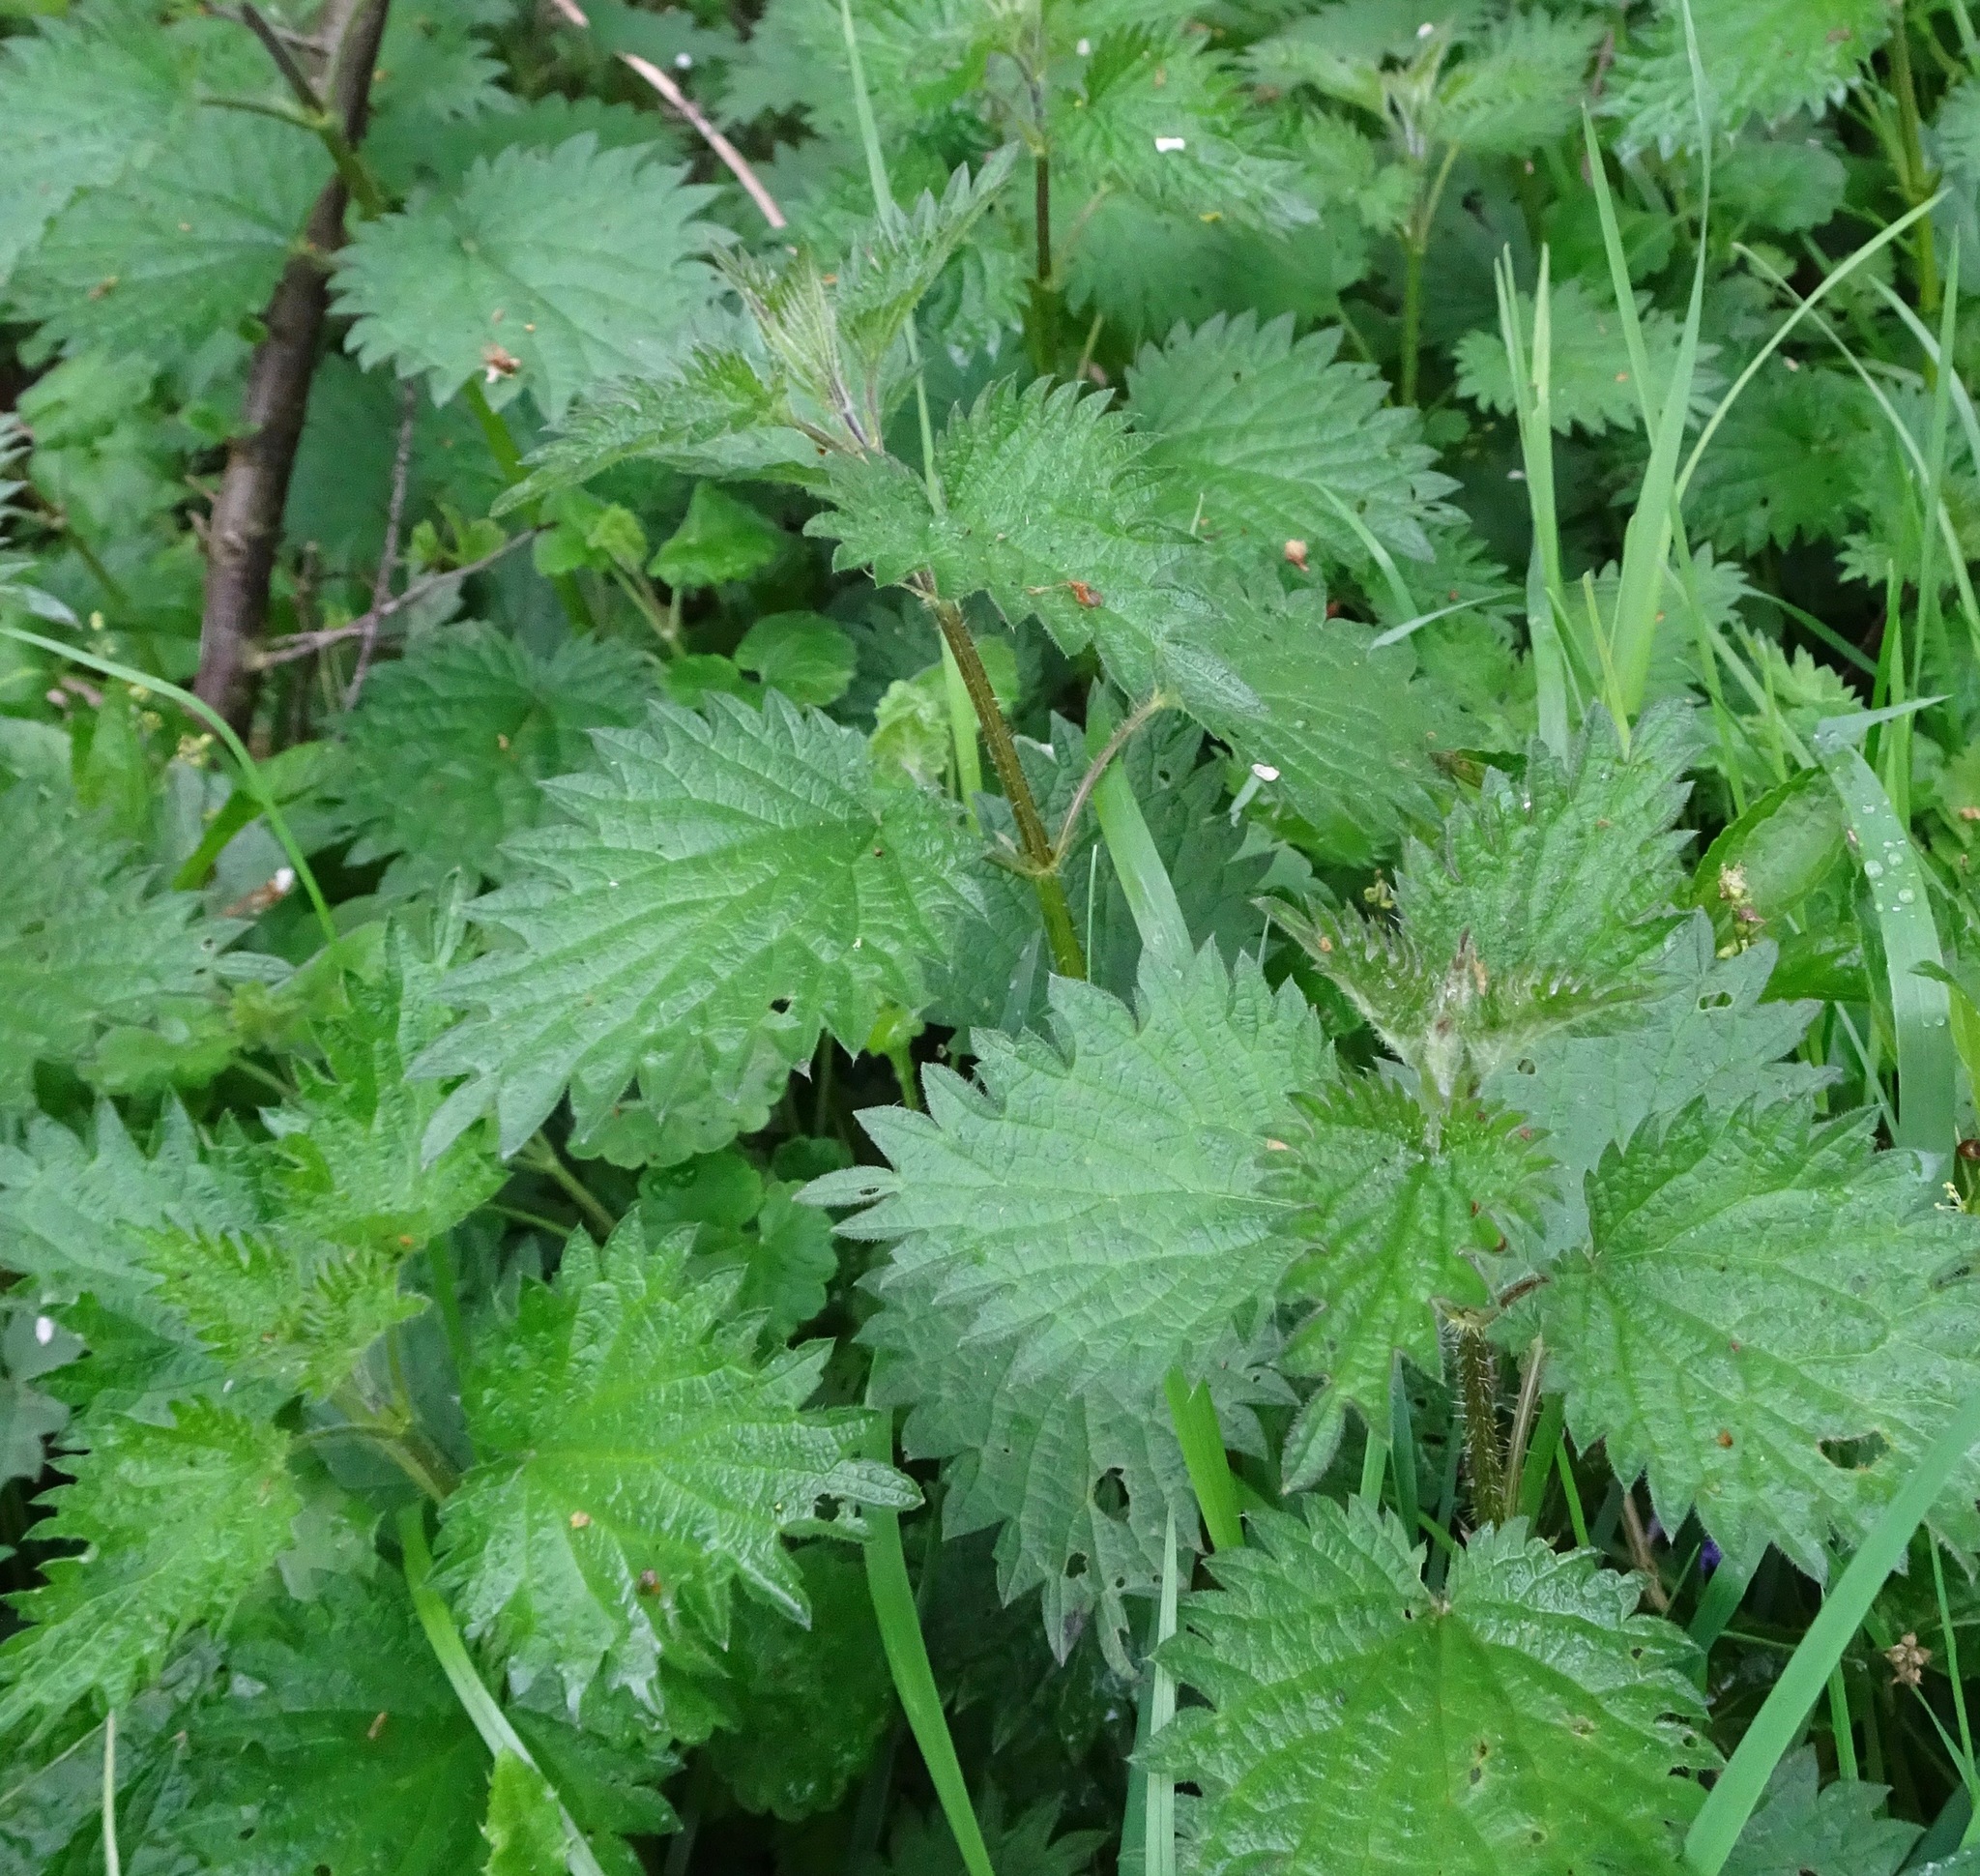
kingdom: Plantae
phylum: Tracheophyta
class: Magnoliopsida
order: Rosales
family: Urticaceae
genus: Urtica
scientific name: Urtica dioica
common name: Common nettle
